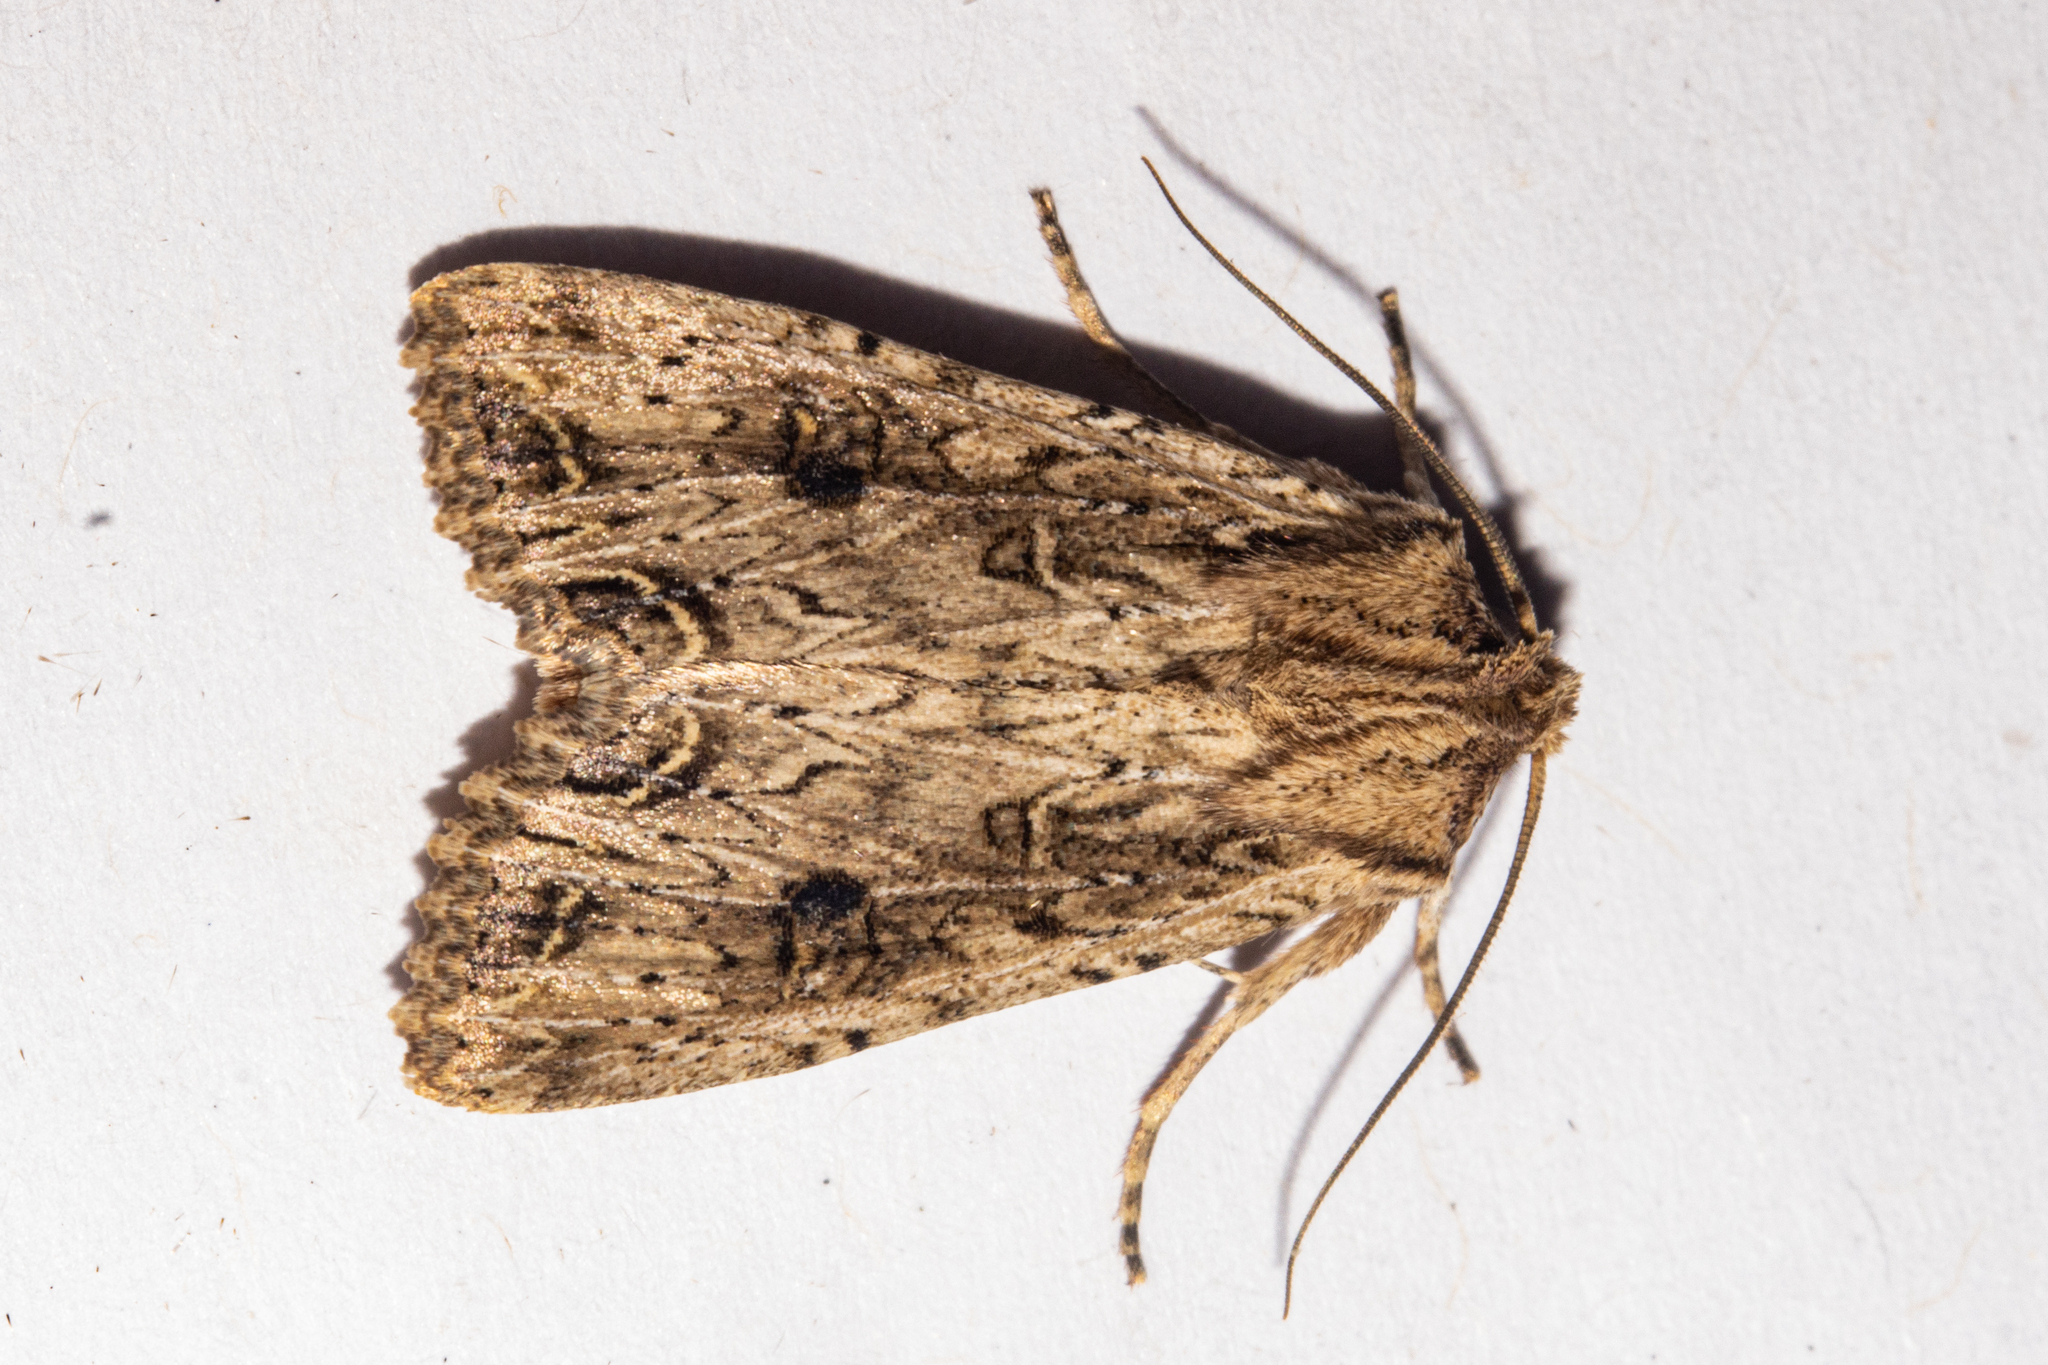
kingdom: Animalia
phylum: Arthropoda
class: Insecta
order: Lepidoptera
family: Noctuidae
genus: Ichneutica
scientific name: Ichneutica lignana
